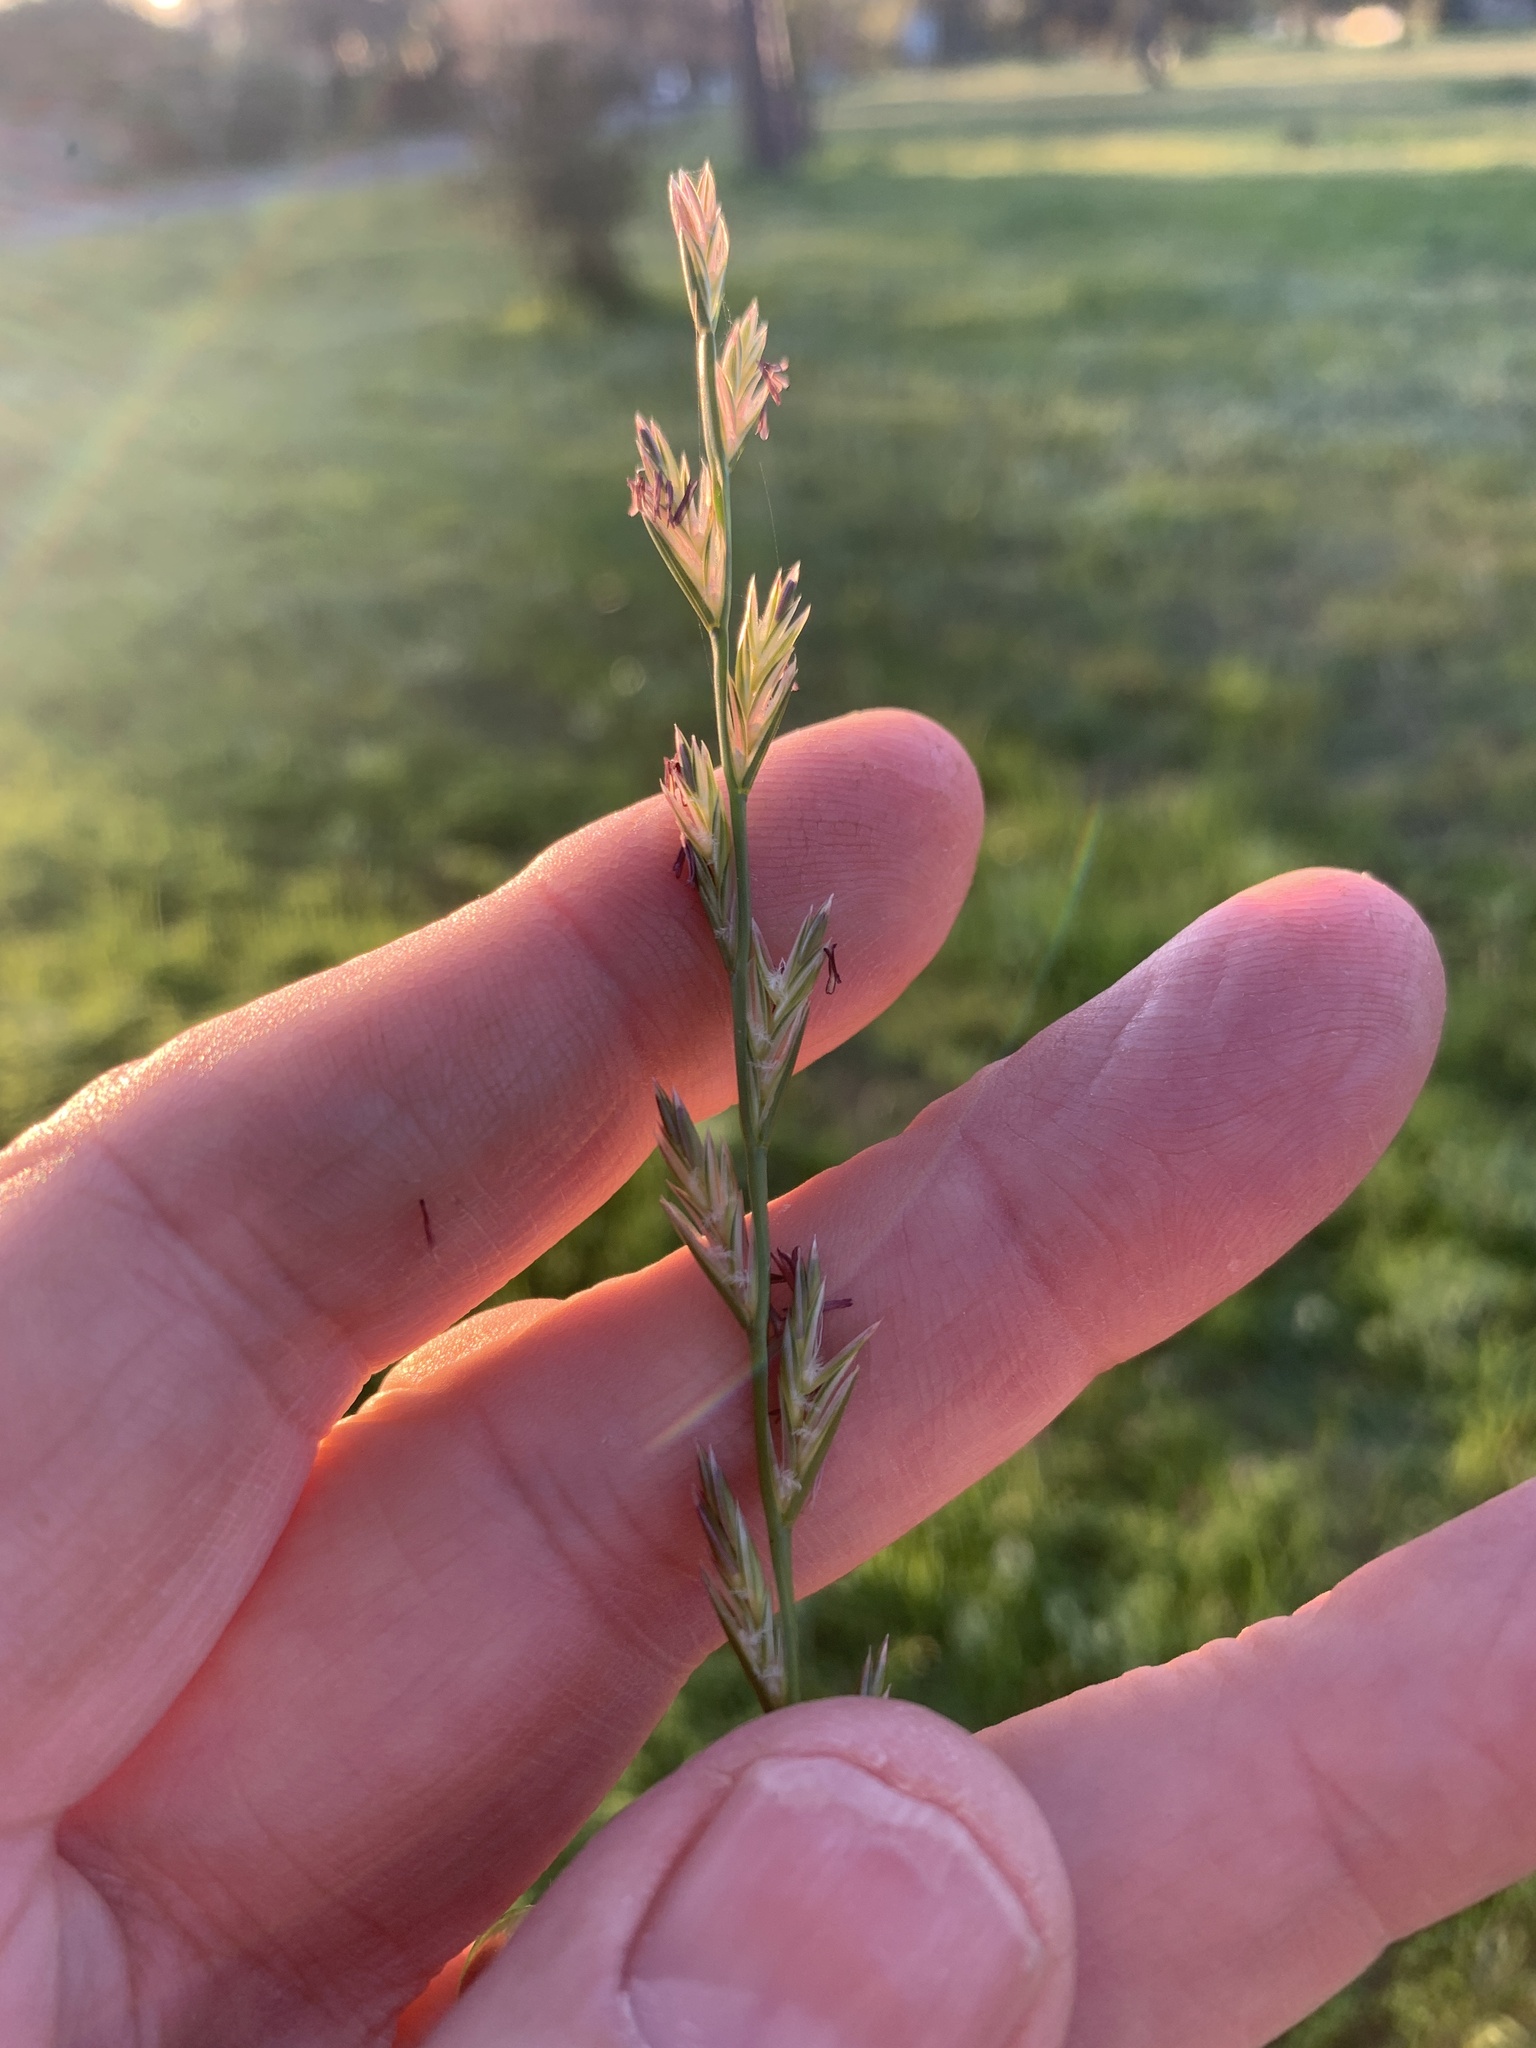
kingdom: Plantae
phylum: Tracheophyta
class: Liliopsida
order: Poales
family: Poaceae
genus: Lolium
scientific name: Lolium perenne
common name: Perennial ryegrass
